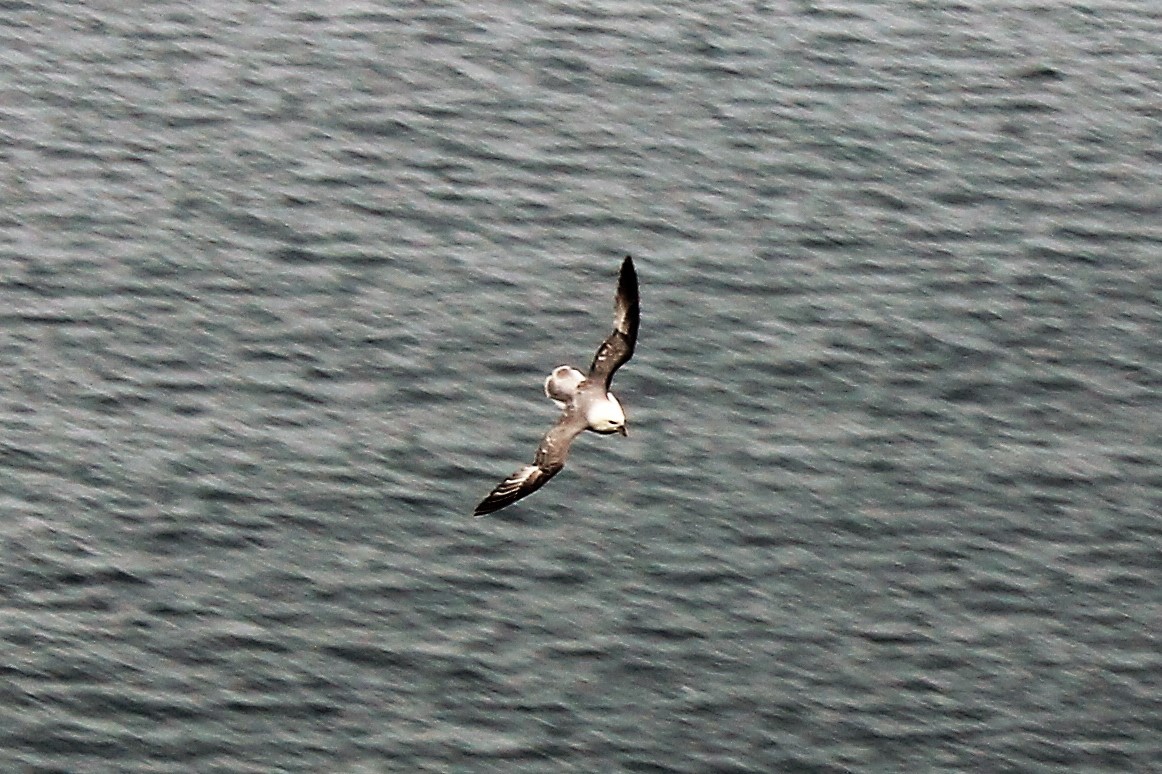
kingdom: Animalia
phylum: Chordata
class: Aves
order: Procellariiformes
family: Procellariidae
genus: Fulmarus
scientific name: Fulmarus glacialis
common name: Northern fulmar
